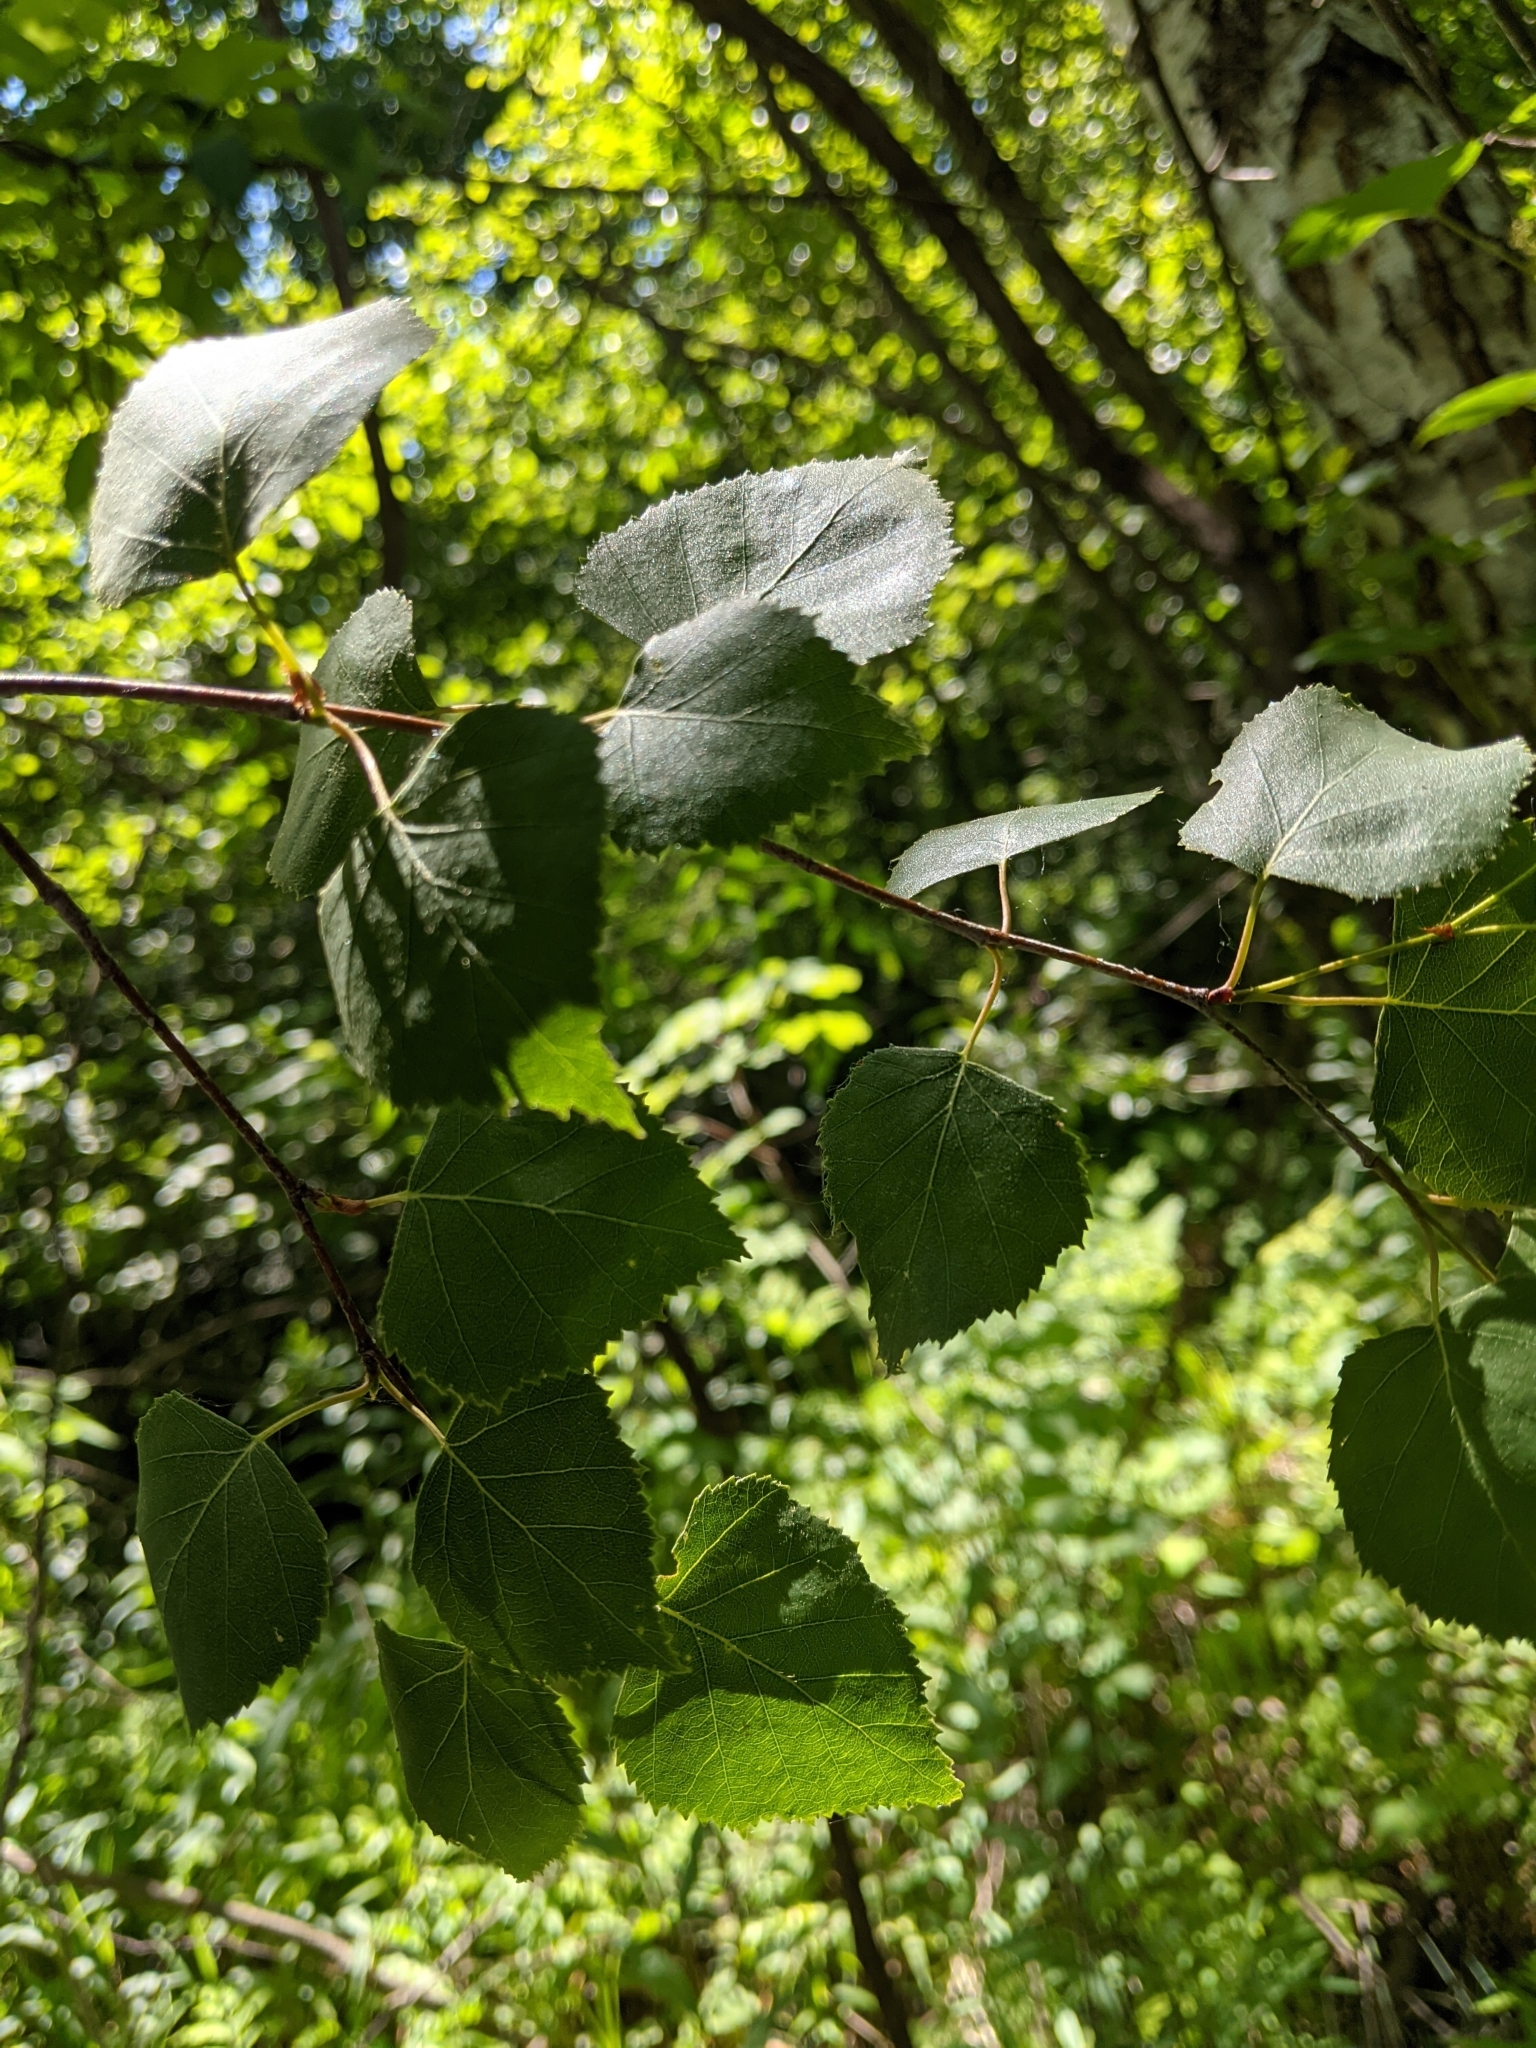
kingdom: Plantae
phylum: Tracheophyta
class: Magnoliopsida
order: Fagales
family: Betulaceae
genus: Betula
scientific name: Betula pendula
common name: Silver birch
